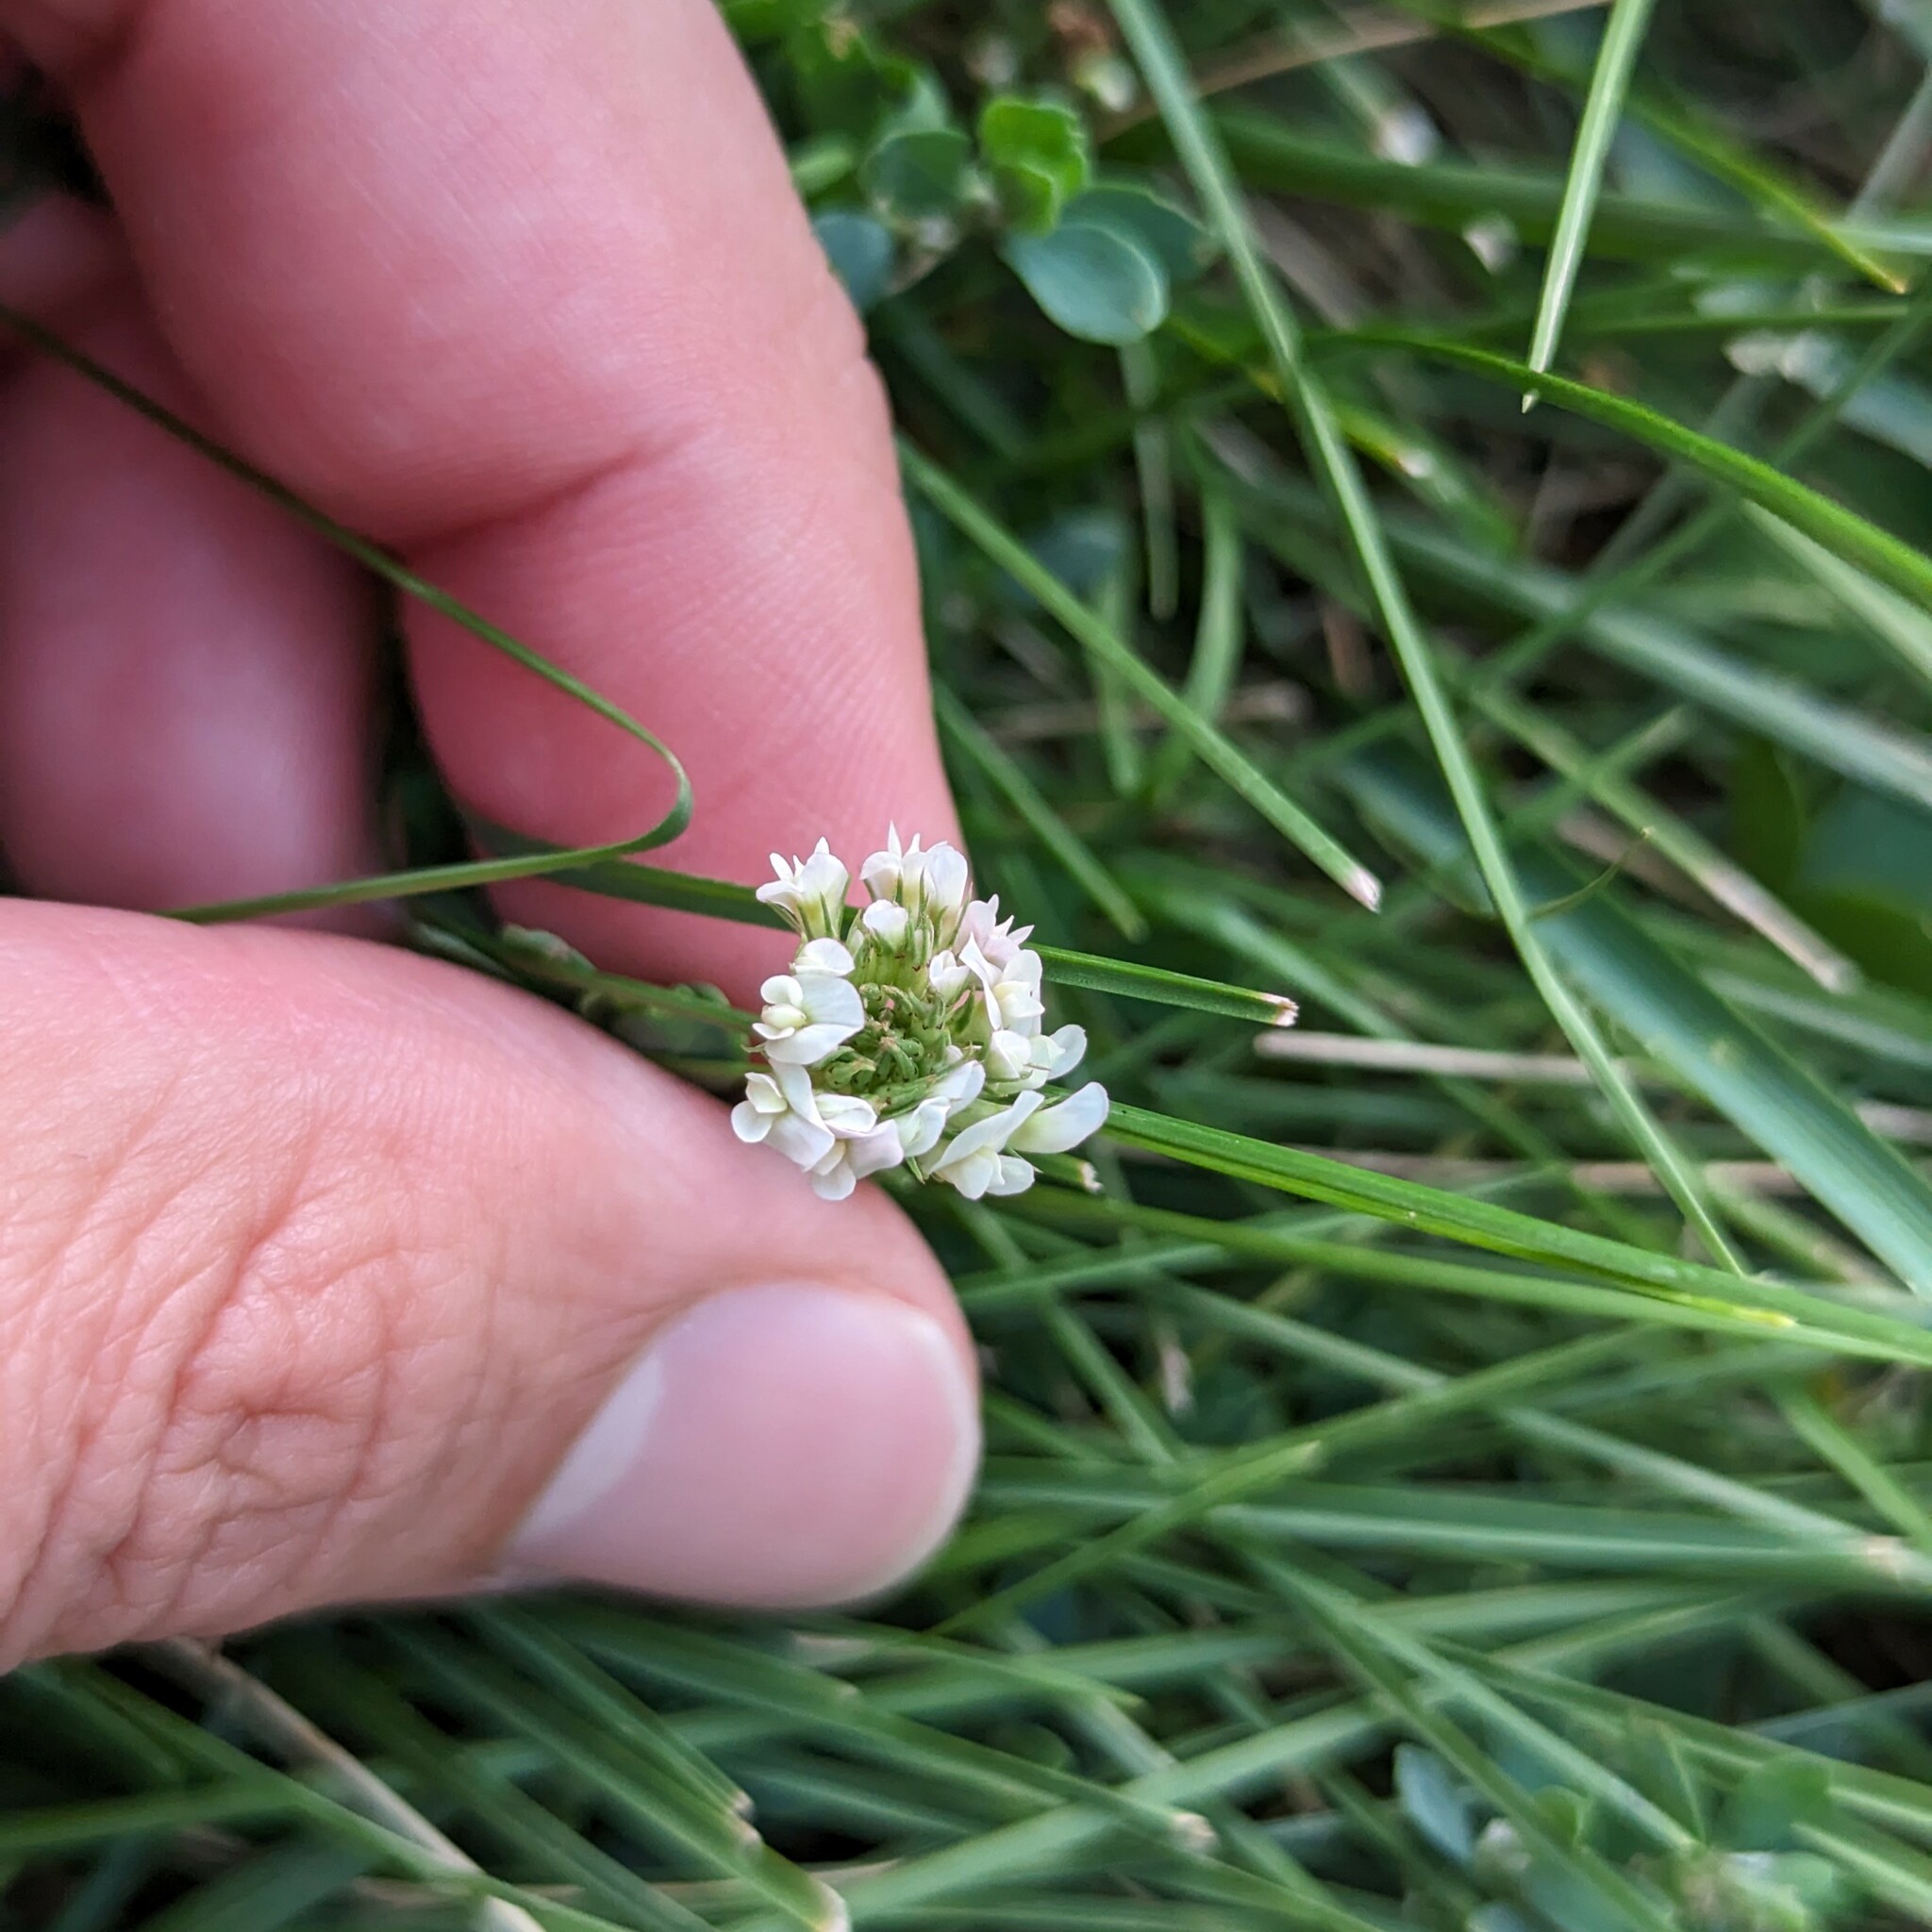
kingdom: Plantae
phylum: Tracheophyta
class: Magnoliopsida
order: Fabales
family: Fabaceae
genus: Trifolium
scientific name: Trifolium repens
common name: White clover
